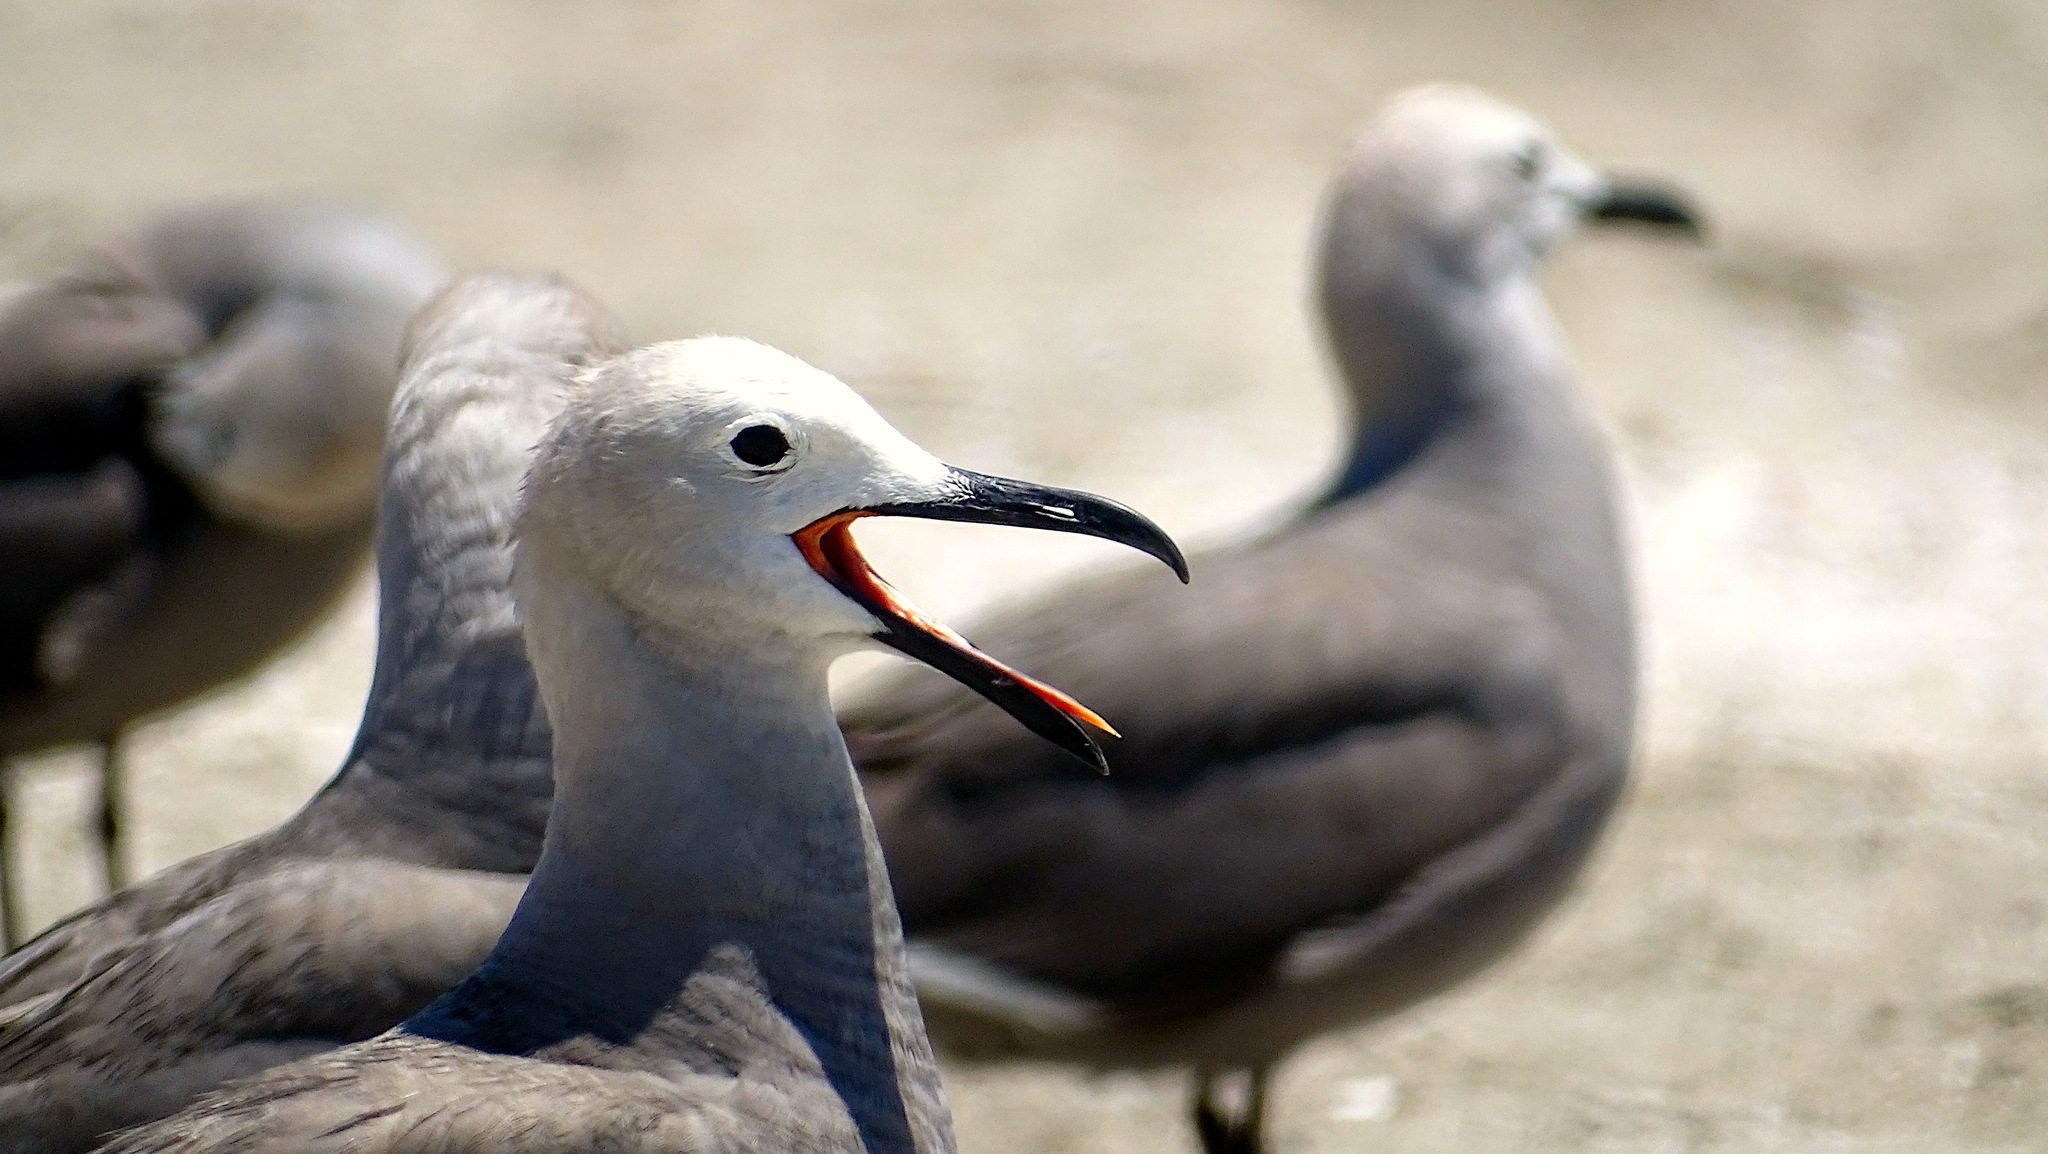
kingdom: Animalia
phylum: Chordata
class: Aves
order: Charadriiformes
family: Laridae
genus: Leucophaeus
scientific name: Leucophaeus modestus
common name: Gray gull
